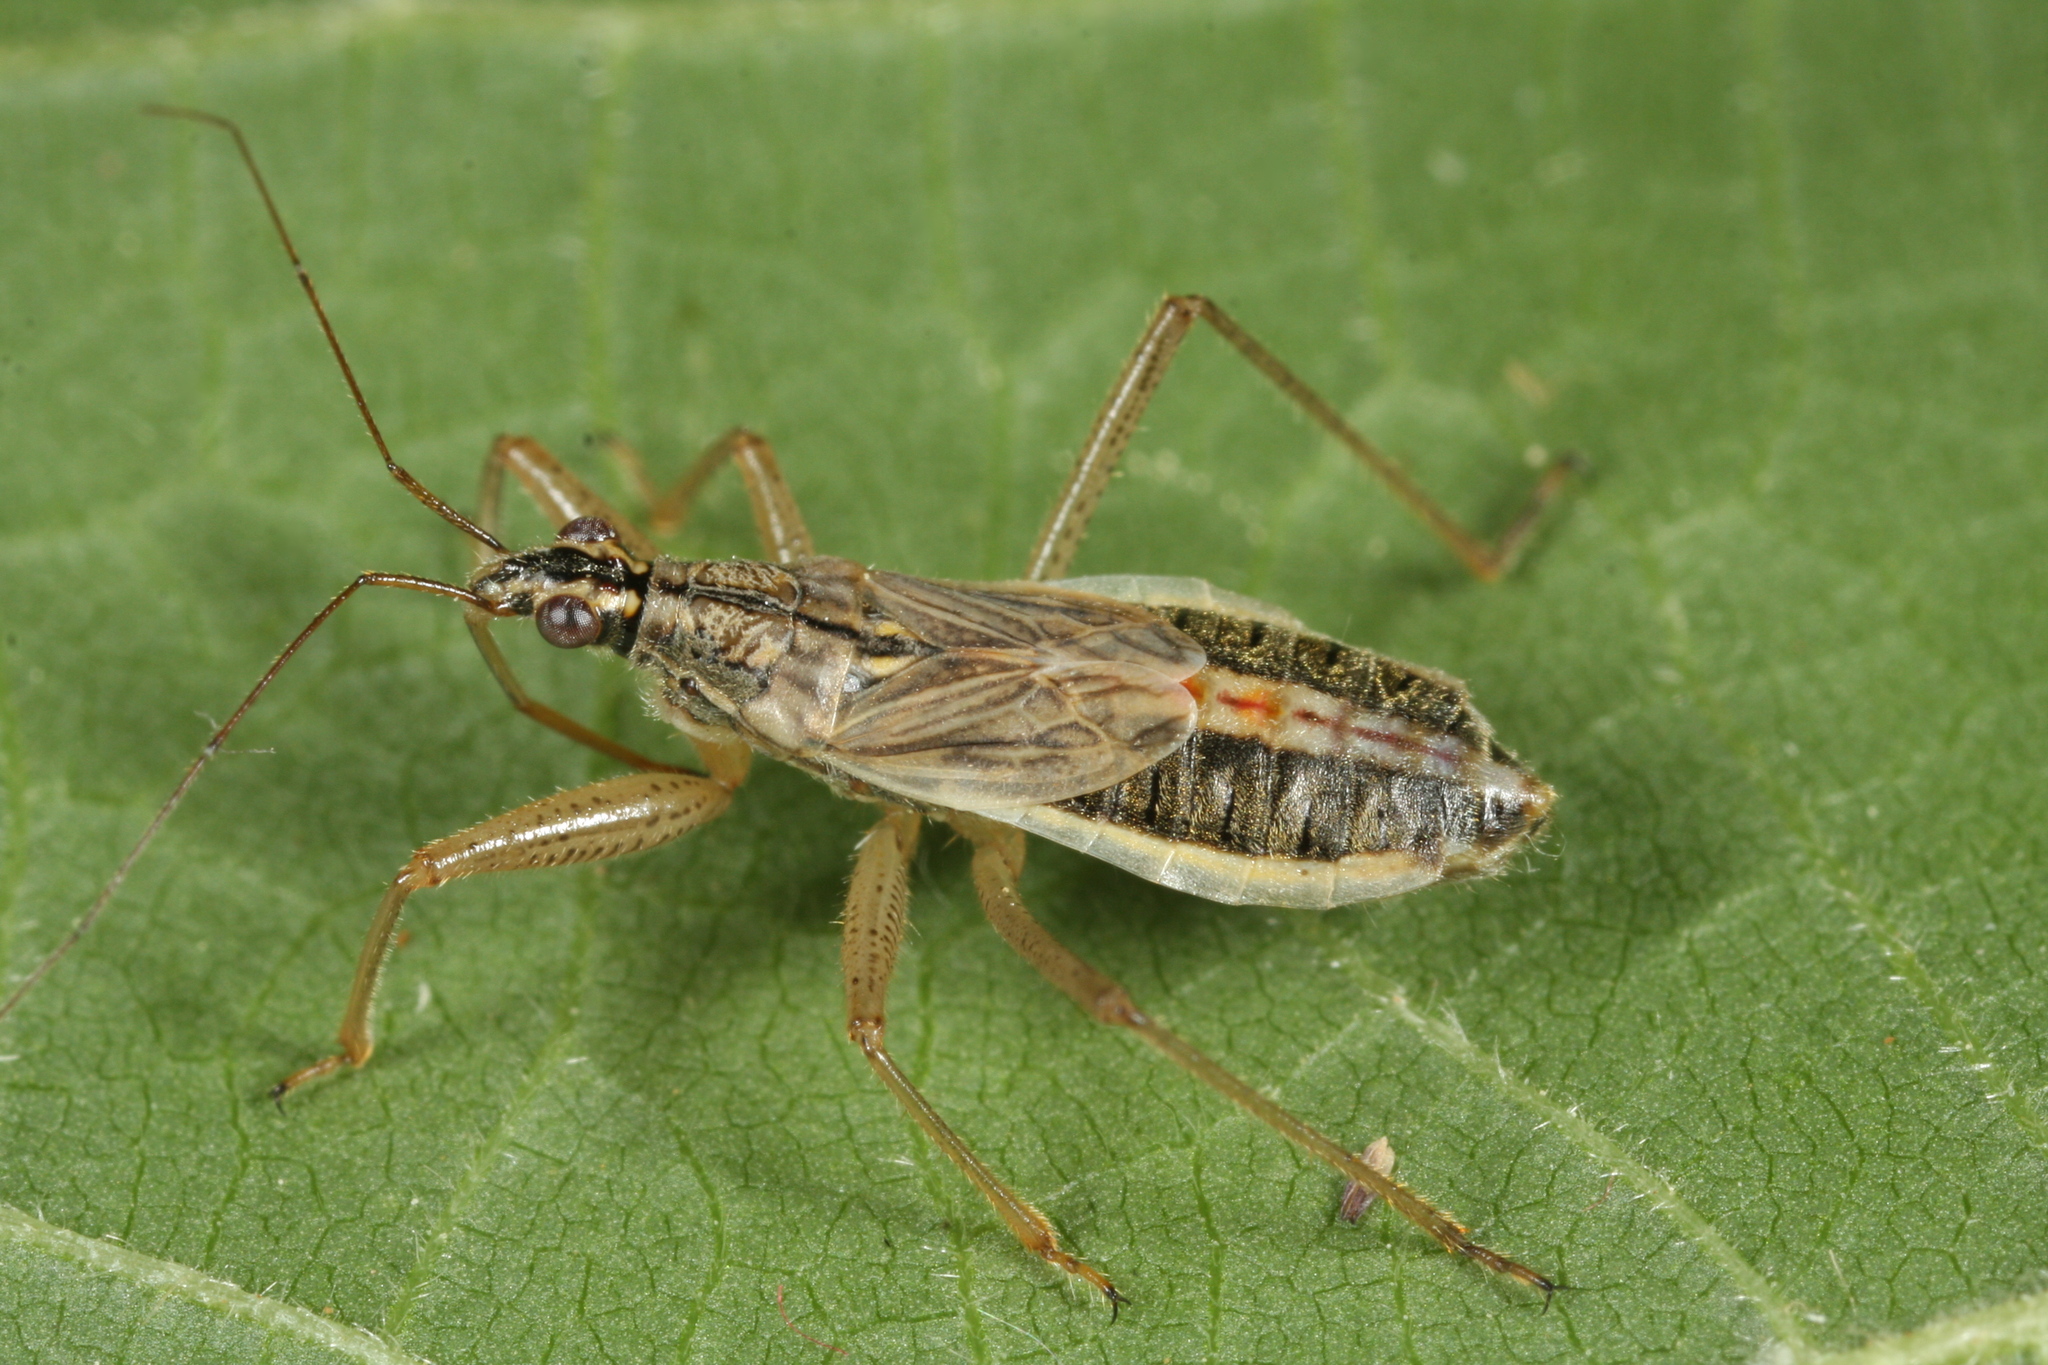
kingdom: Animalia
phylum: Arthropoda
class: Insecta
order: Hemiptera
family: Nabidae
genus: Nabis
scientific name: Nabis flavomarginatus
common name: Broad damselbug
